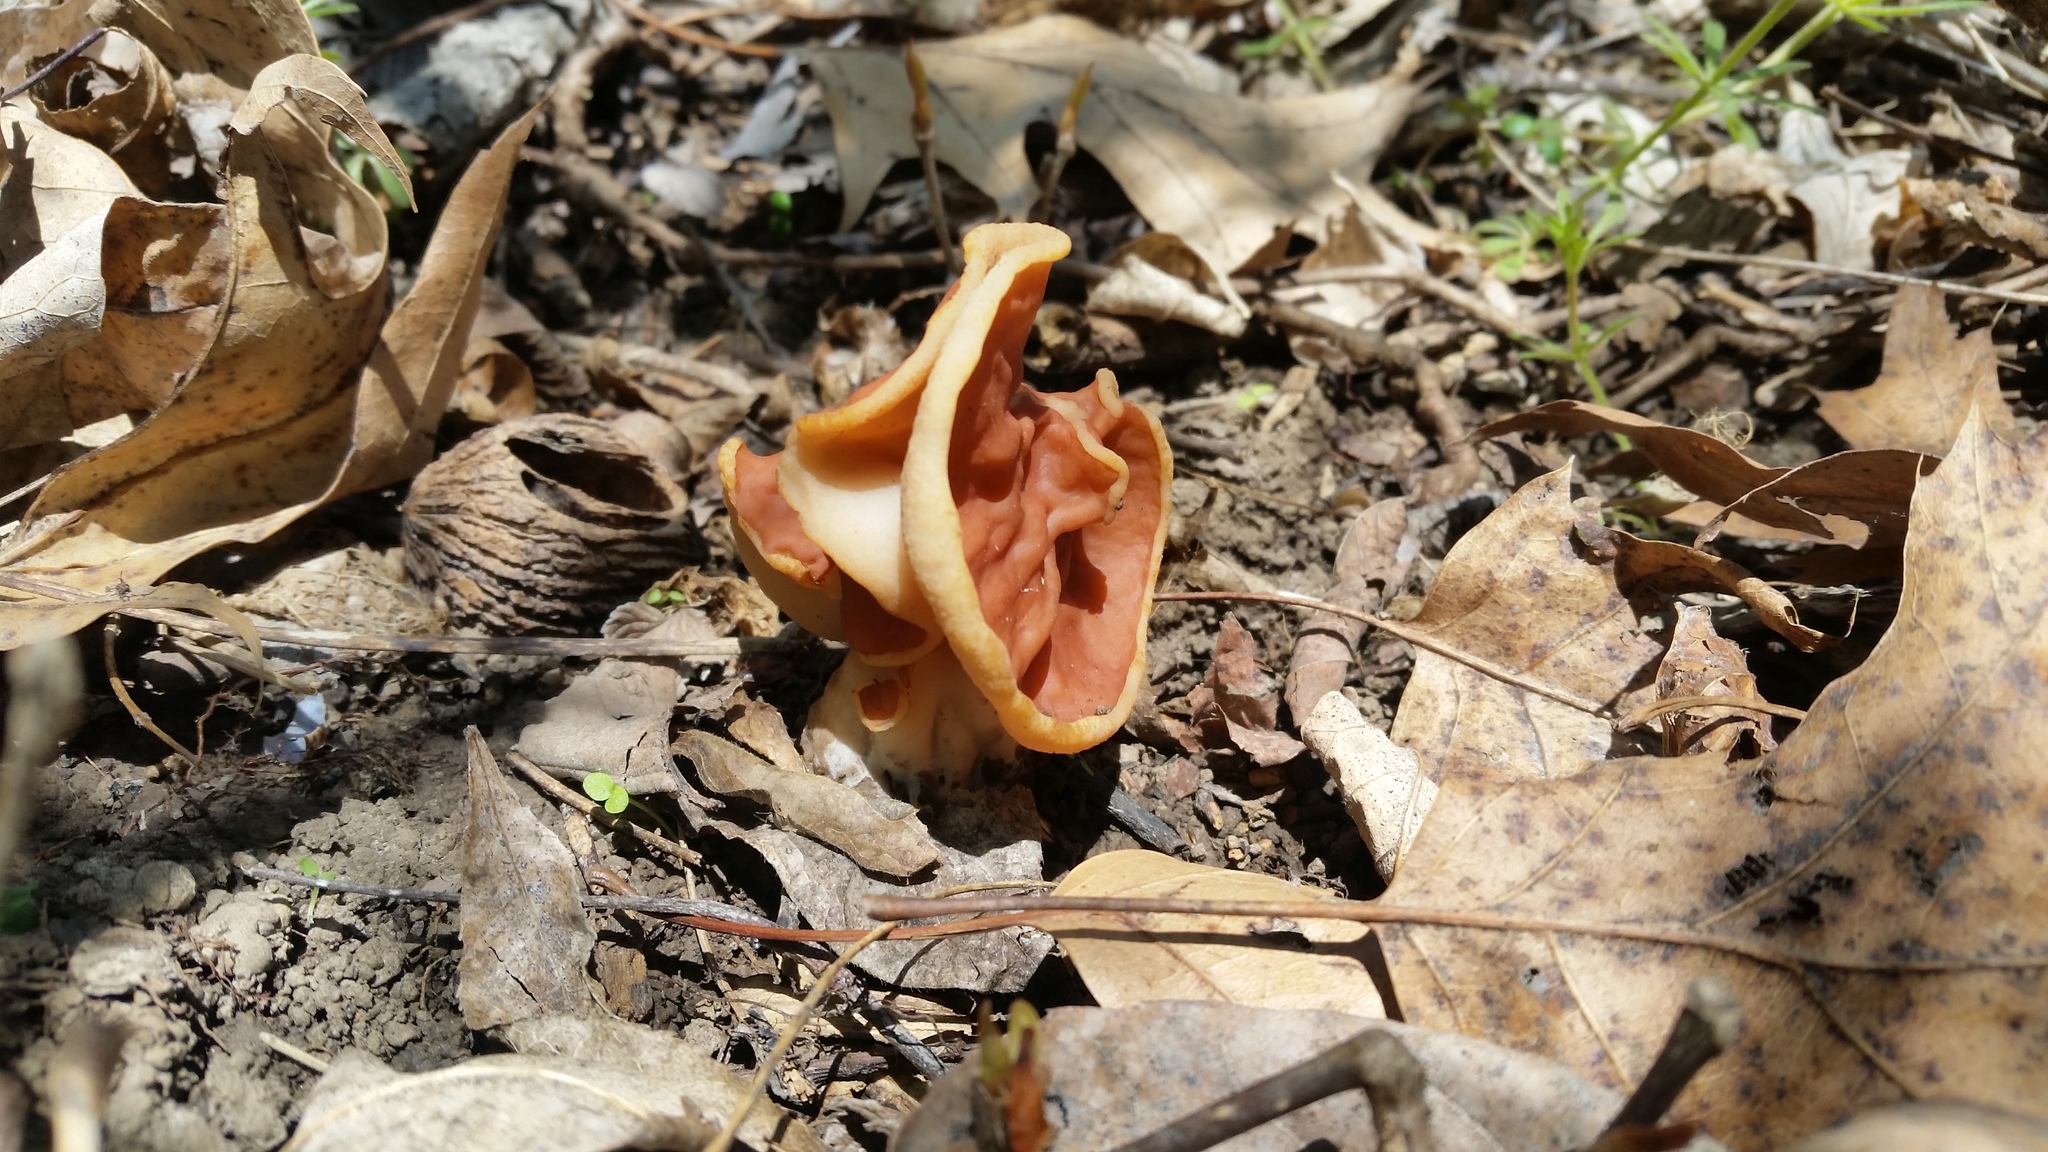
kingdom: Fungi
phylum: Ascomycota
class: Pezizomycetes
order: Pezizales
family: Discinaceae
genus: Discina
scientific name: Discina brunnea
